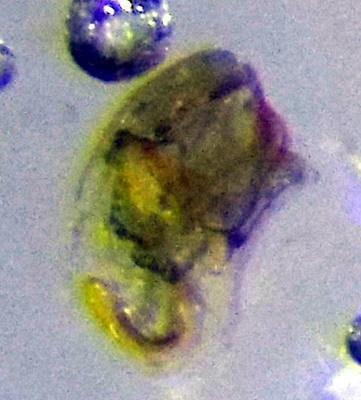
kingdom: Animalia
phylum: Arthropoda
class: Insecta
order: Hemiptera
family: Pentatomidae
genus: Tarisa
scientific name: Tarisa salsolae
